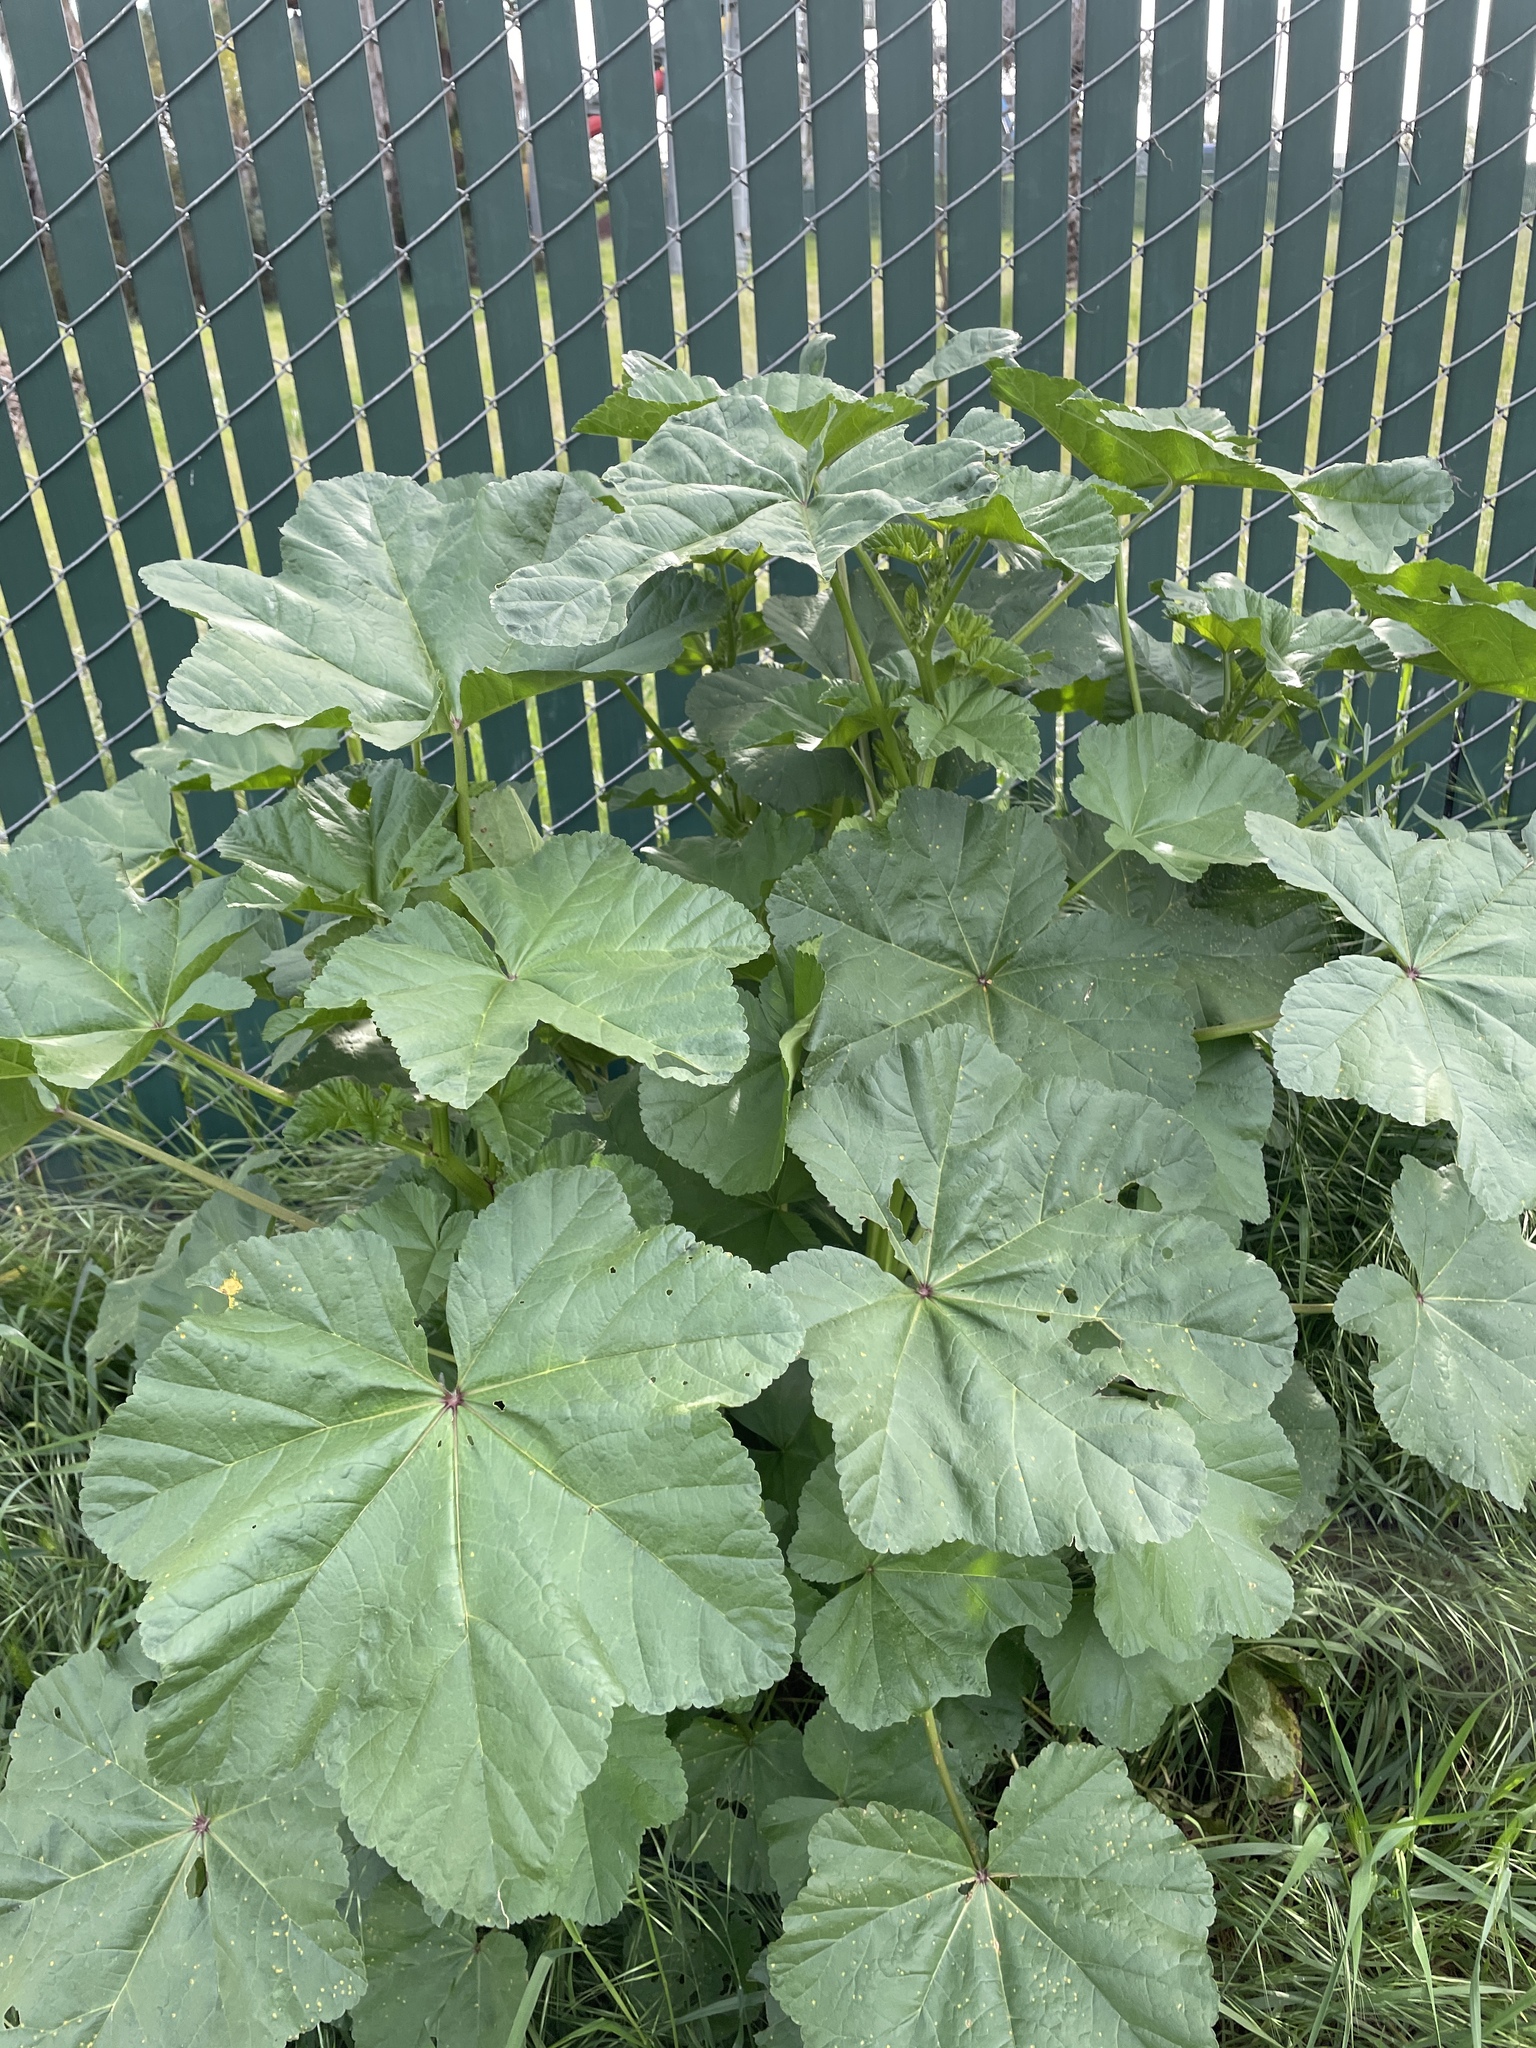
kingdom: Plantae
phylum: Tracheophyta
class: Magnoliopsida
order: Malvales
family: Malvaceae
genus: Malva
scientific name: Malva
